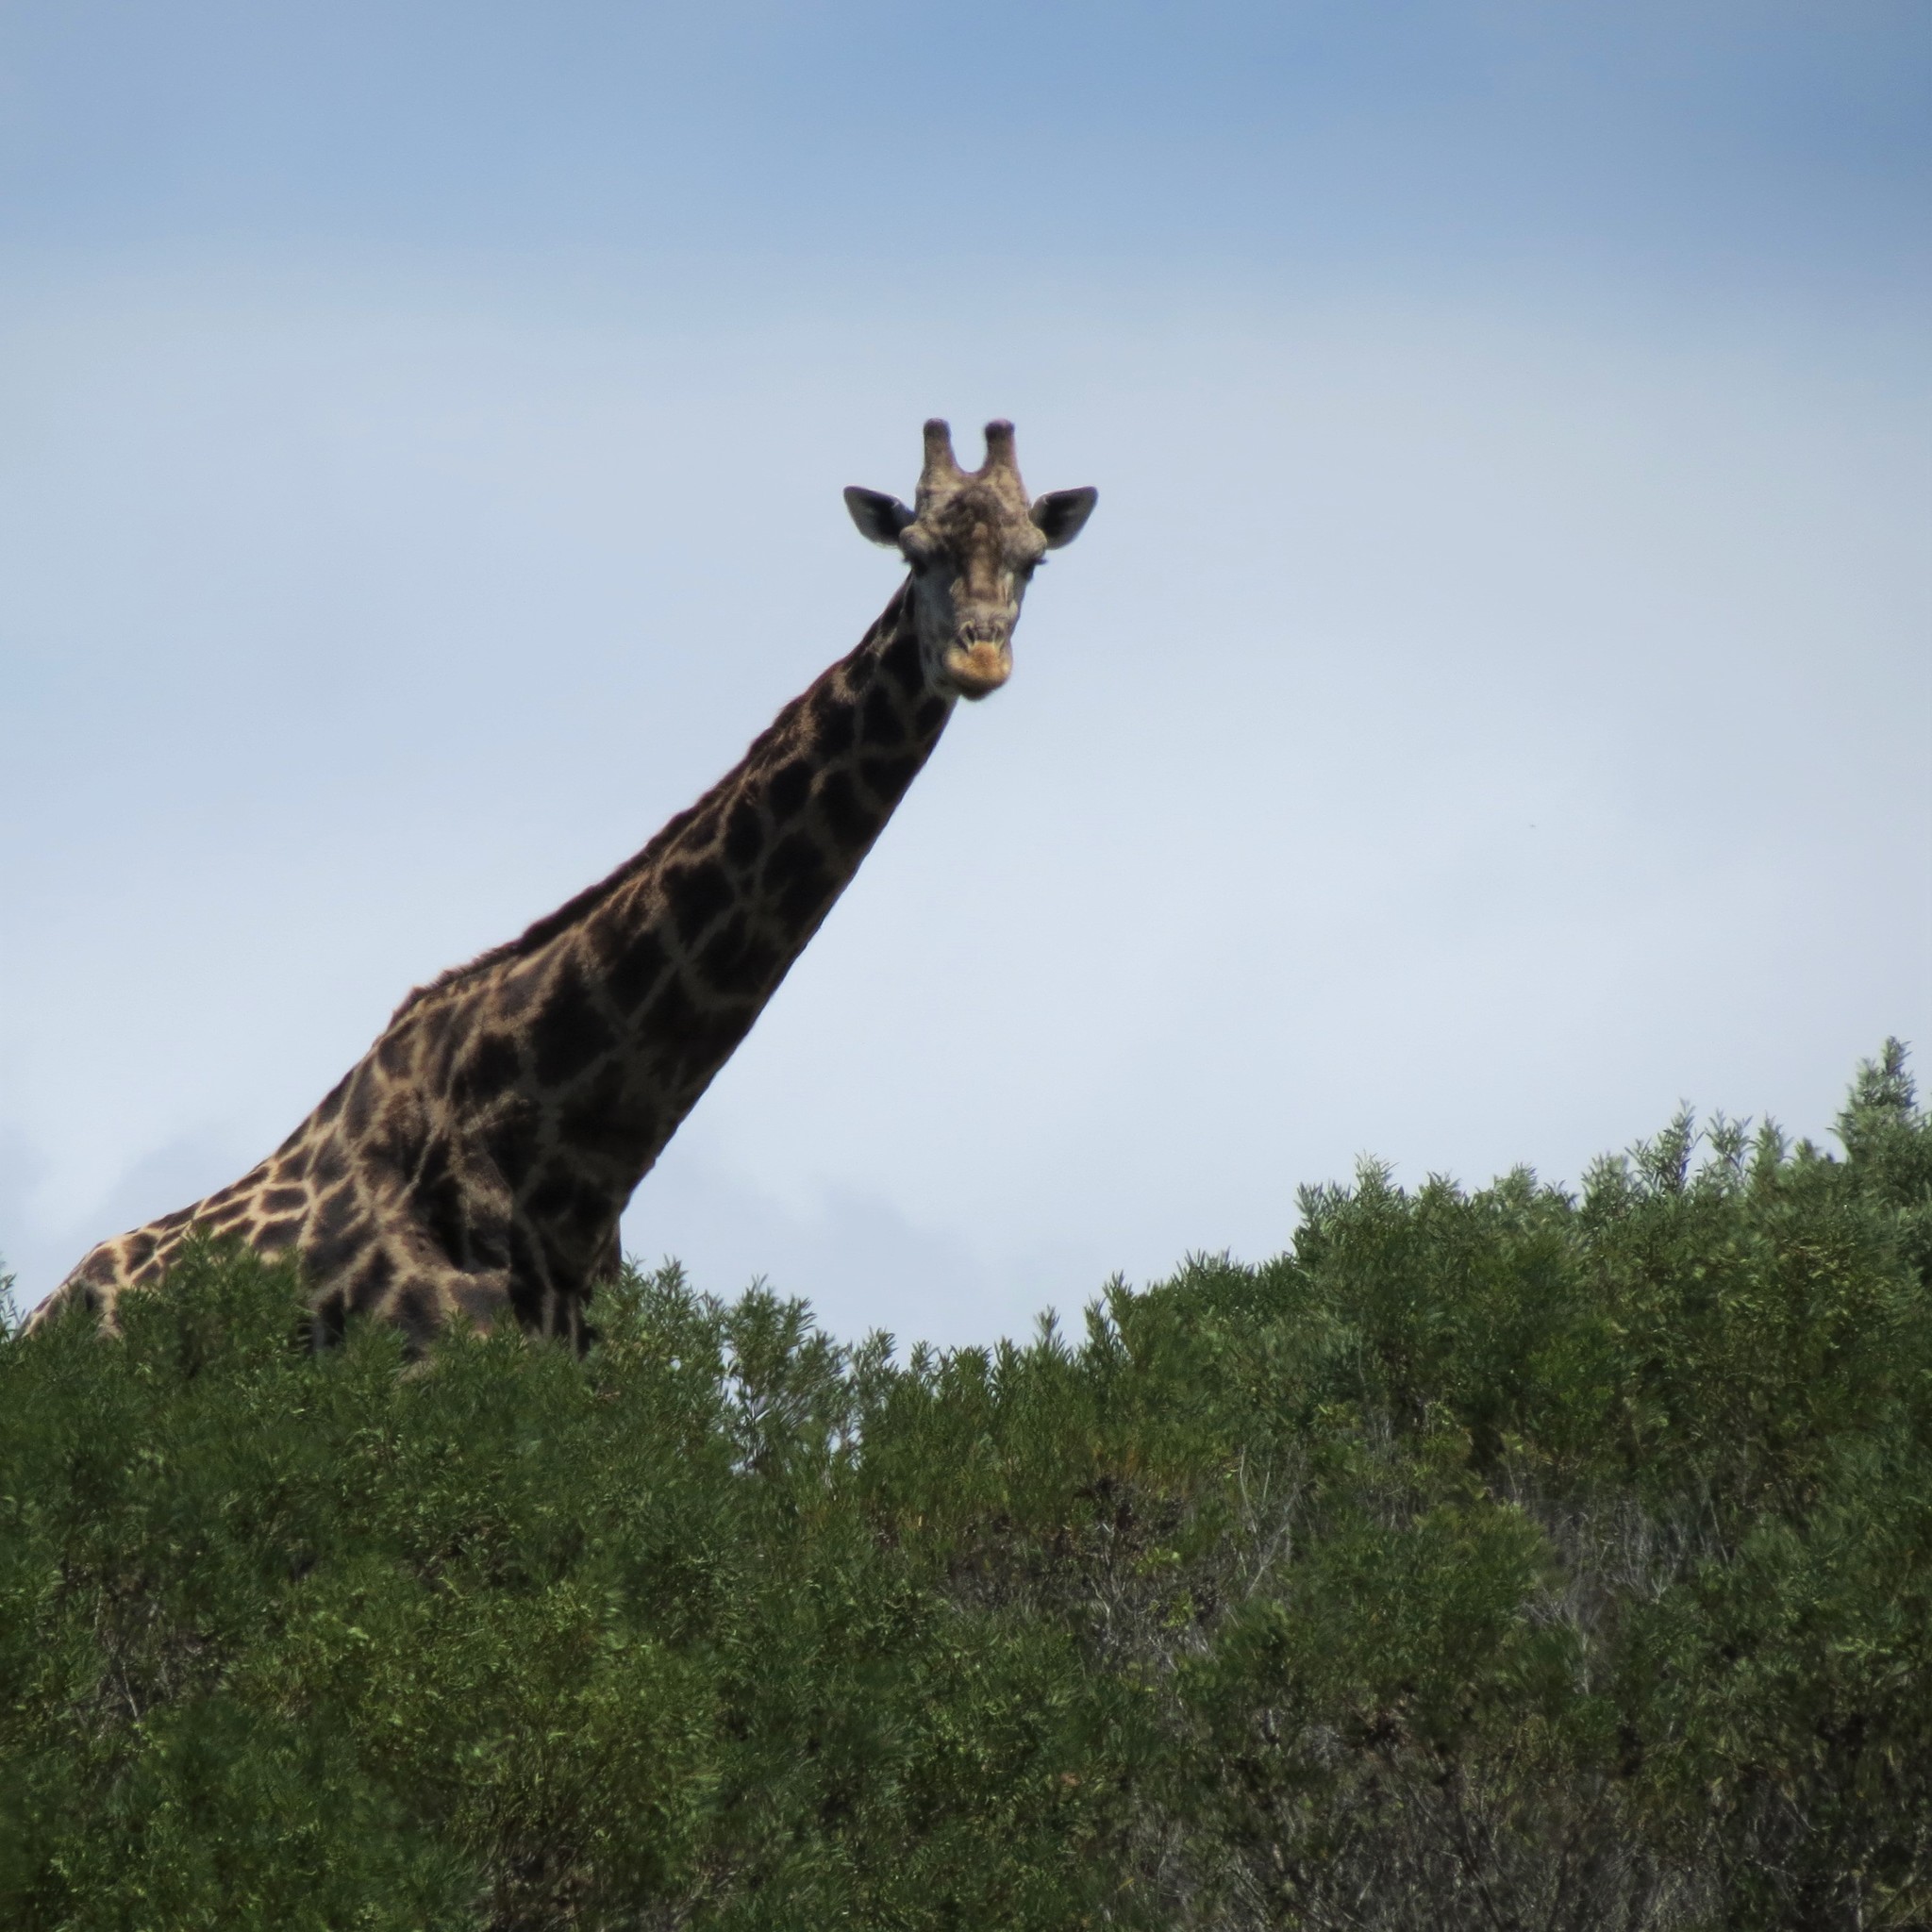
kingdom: Animalia
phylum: Chordata
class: Mammalia
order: Artiodactyla
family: Giraffidae
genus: Giraffa
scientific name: Giraffa giraffa
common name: Southern giraffe
